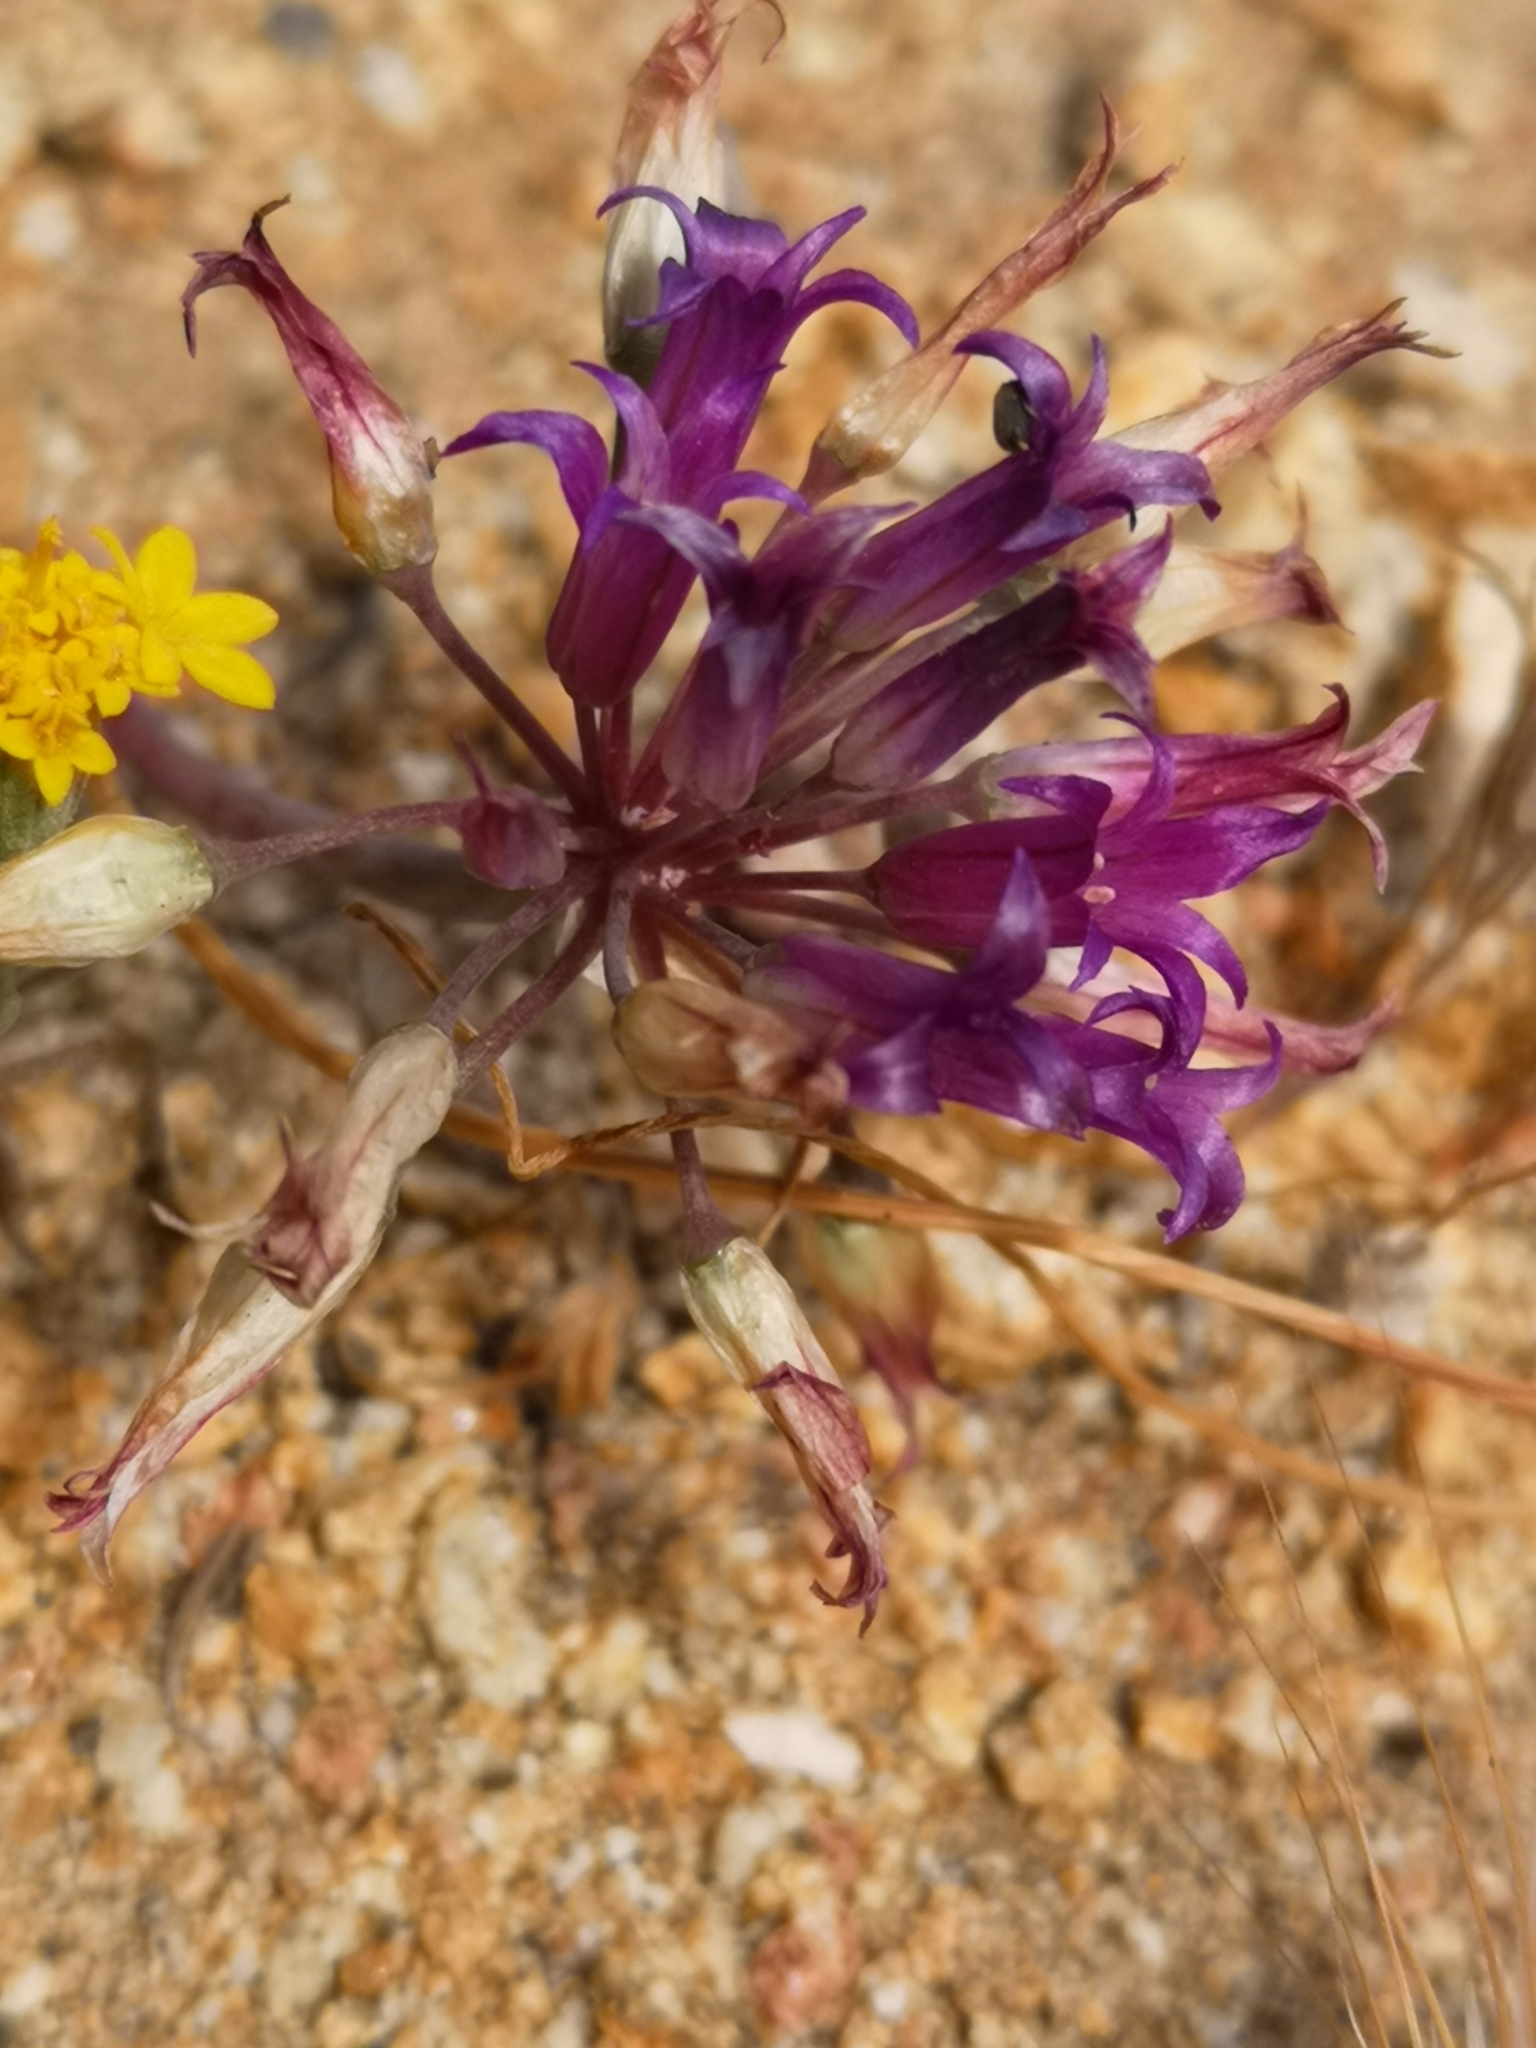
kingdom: Plantae
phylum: Tracheophyta
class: Liliopsida
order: Asparagales
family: Amaryllidaceae
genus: Allium
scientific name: Allium fimbriatum
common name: Fringed onion
